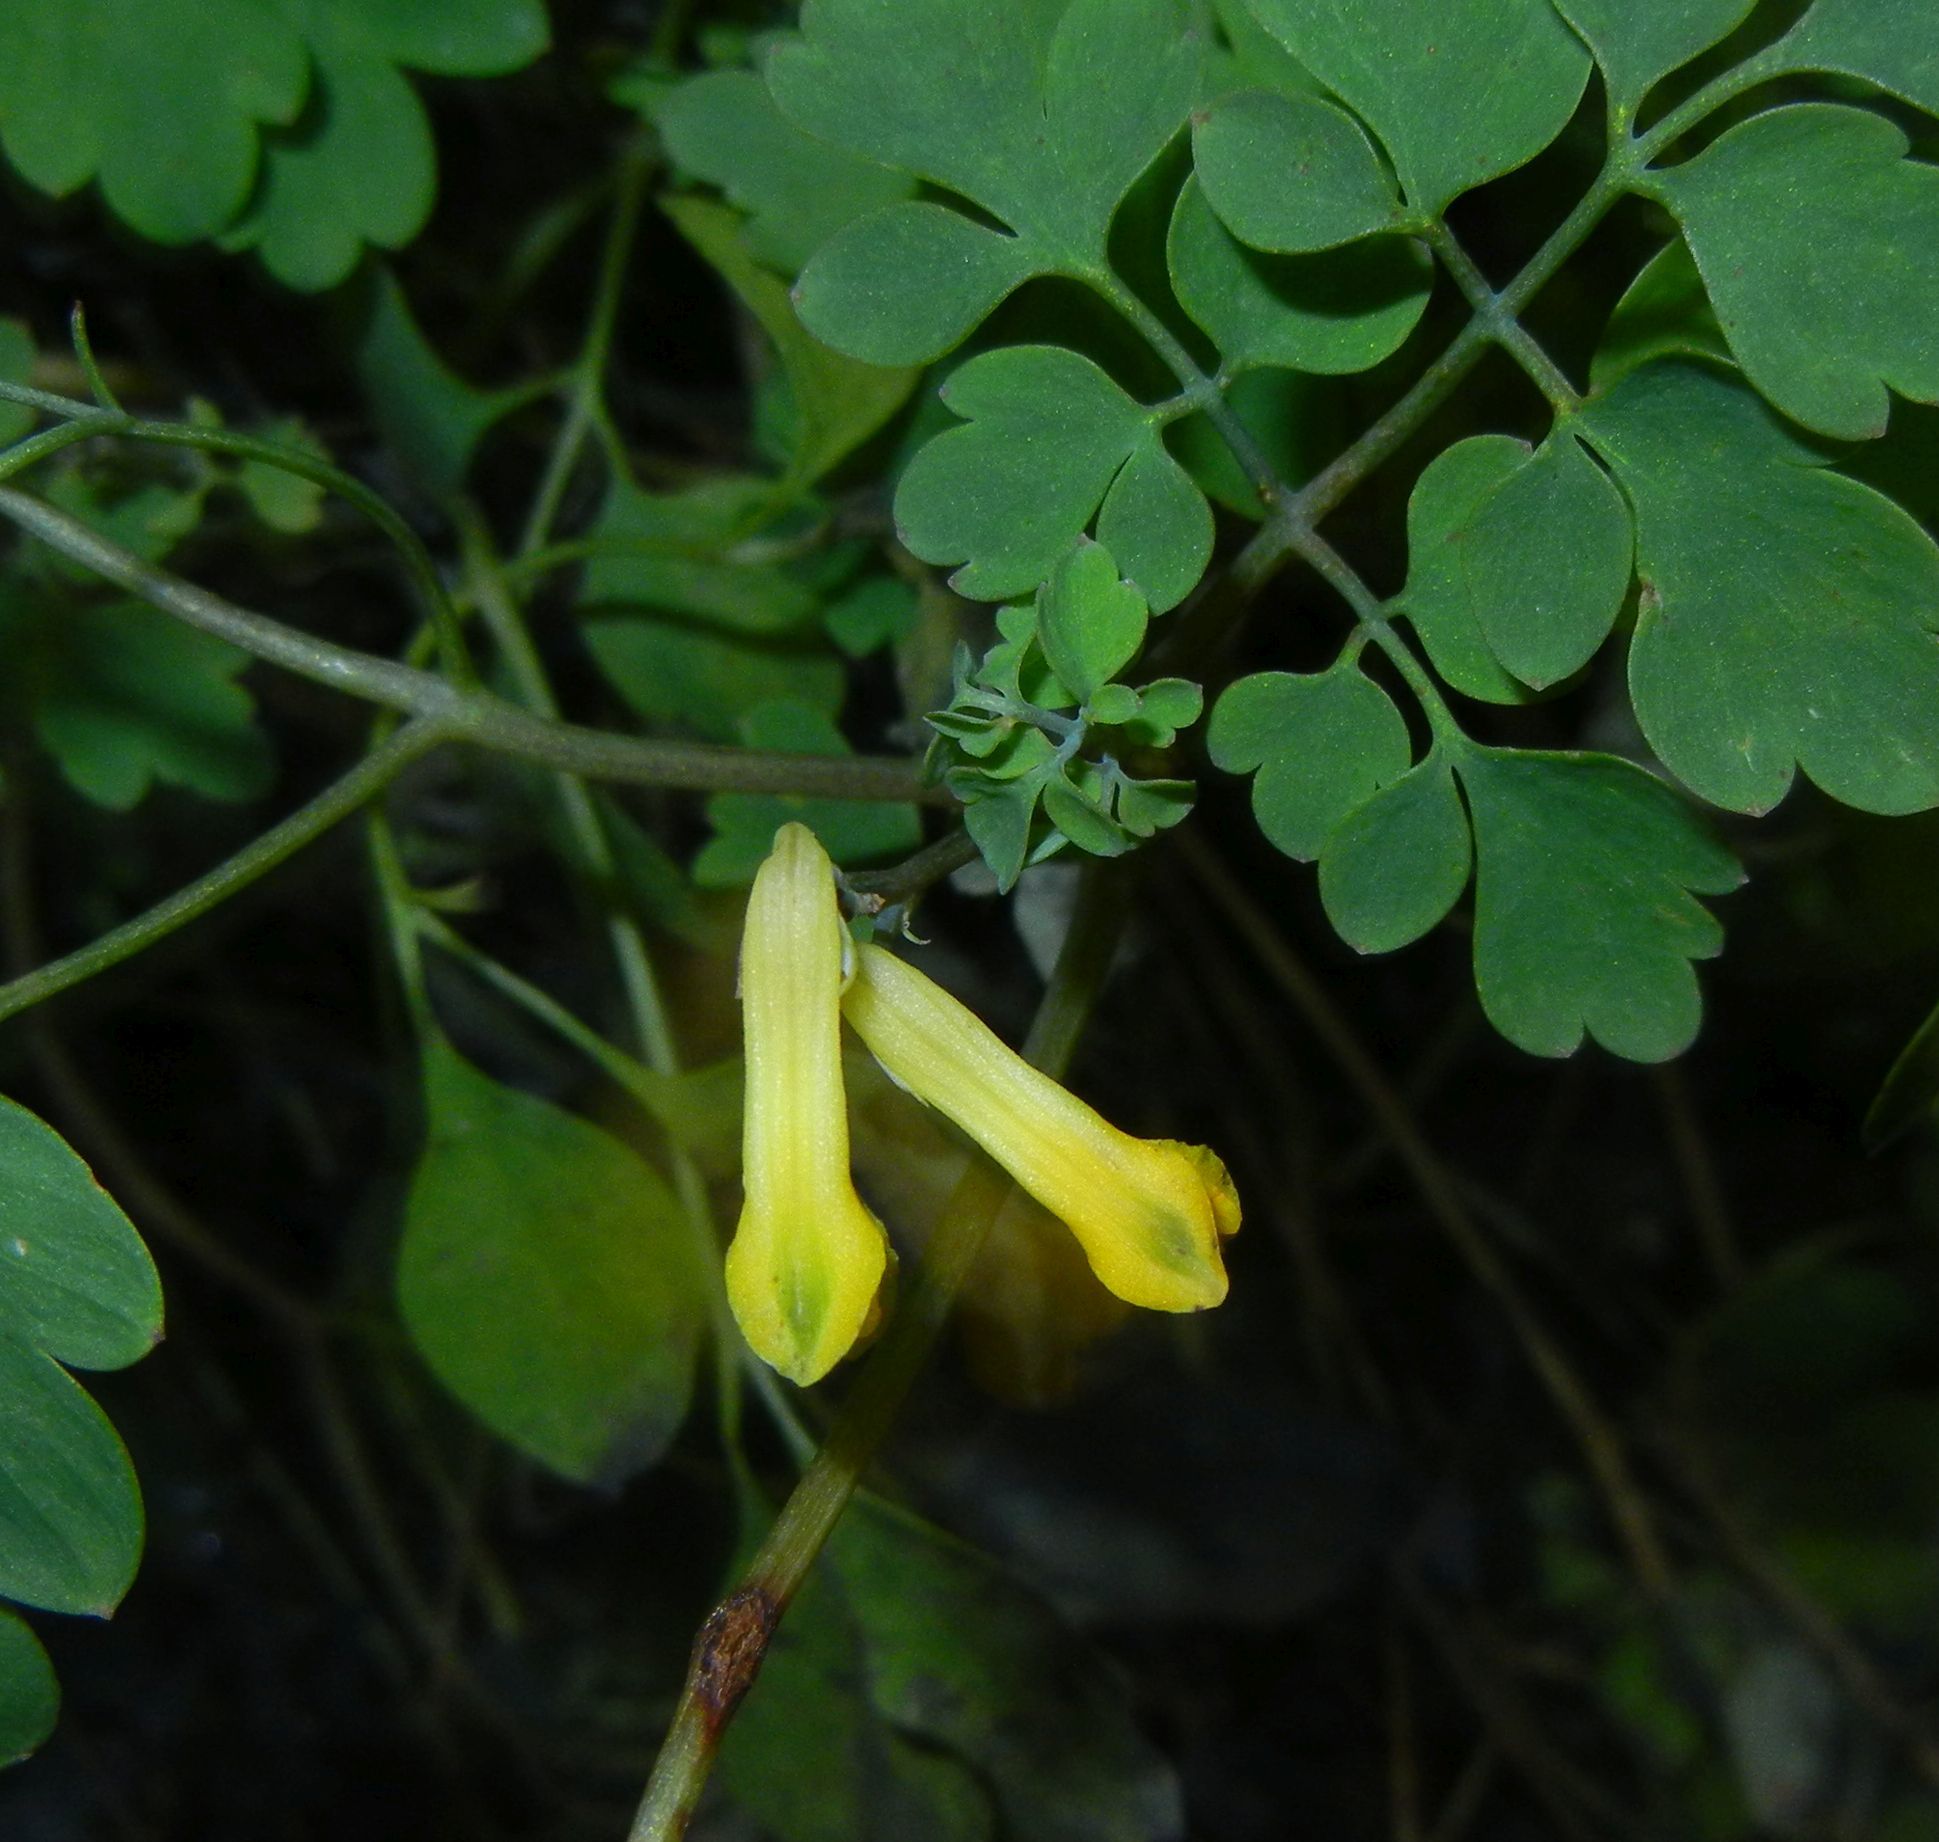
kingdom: Plantae
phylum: Tracheophyta
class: Magnoliopsida
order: Ranunculales
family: Papaveraceae
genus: Pseudofumaria
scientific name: Pseudofumaria lutea
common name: Yellow corydalis
